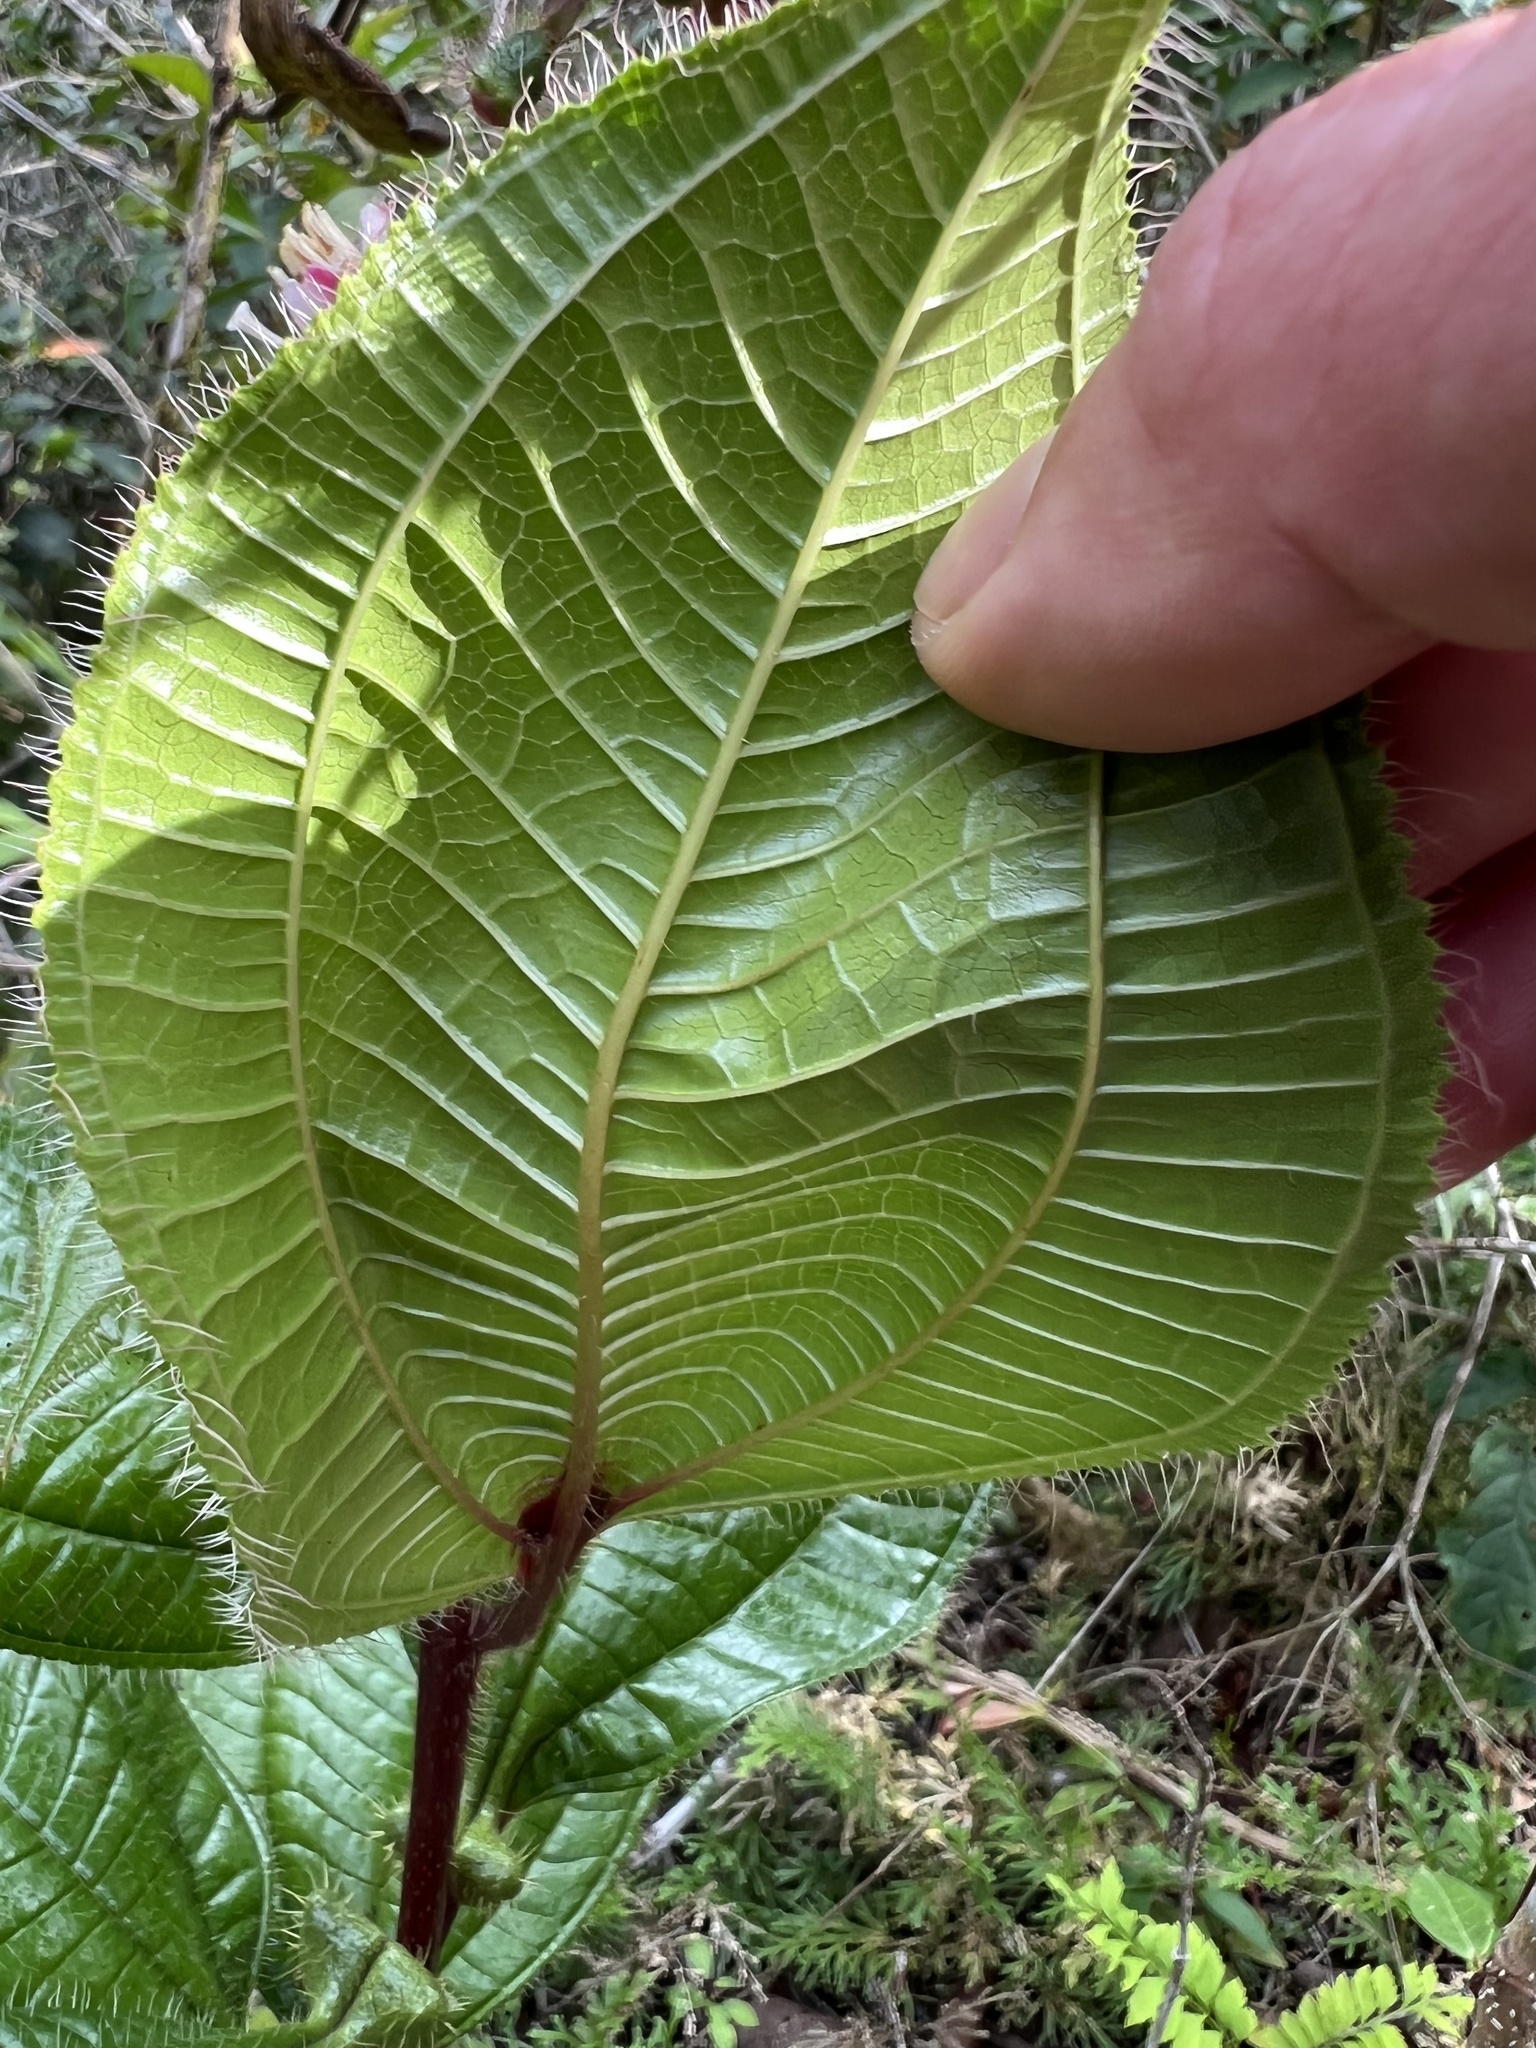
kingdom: Plantae
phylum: Tracheophyta
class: Magnoliopsida
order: Myrtales
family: Melastomataceae
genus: Miconia
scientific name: Miconia tococa
